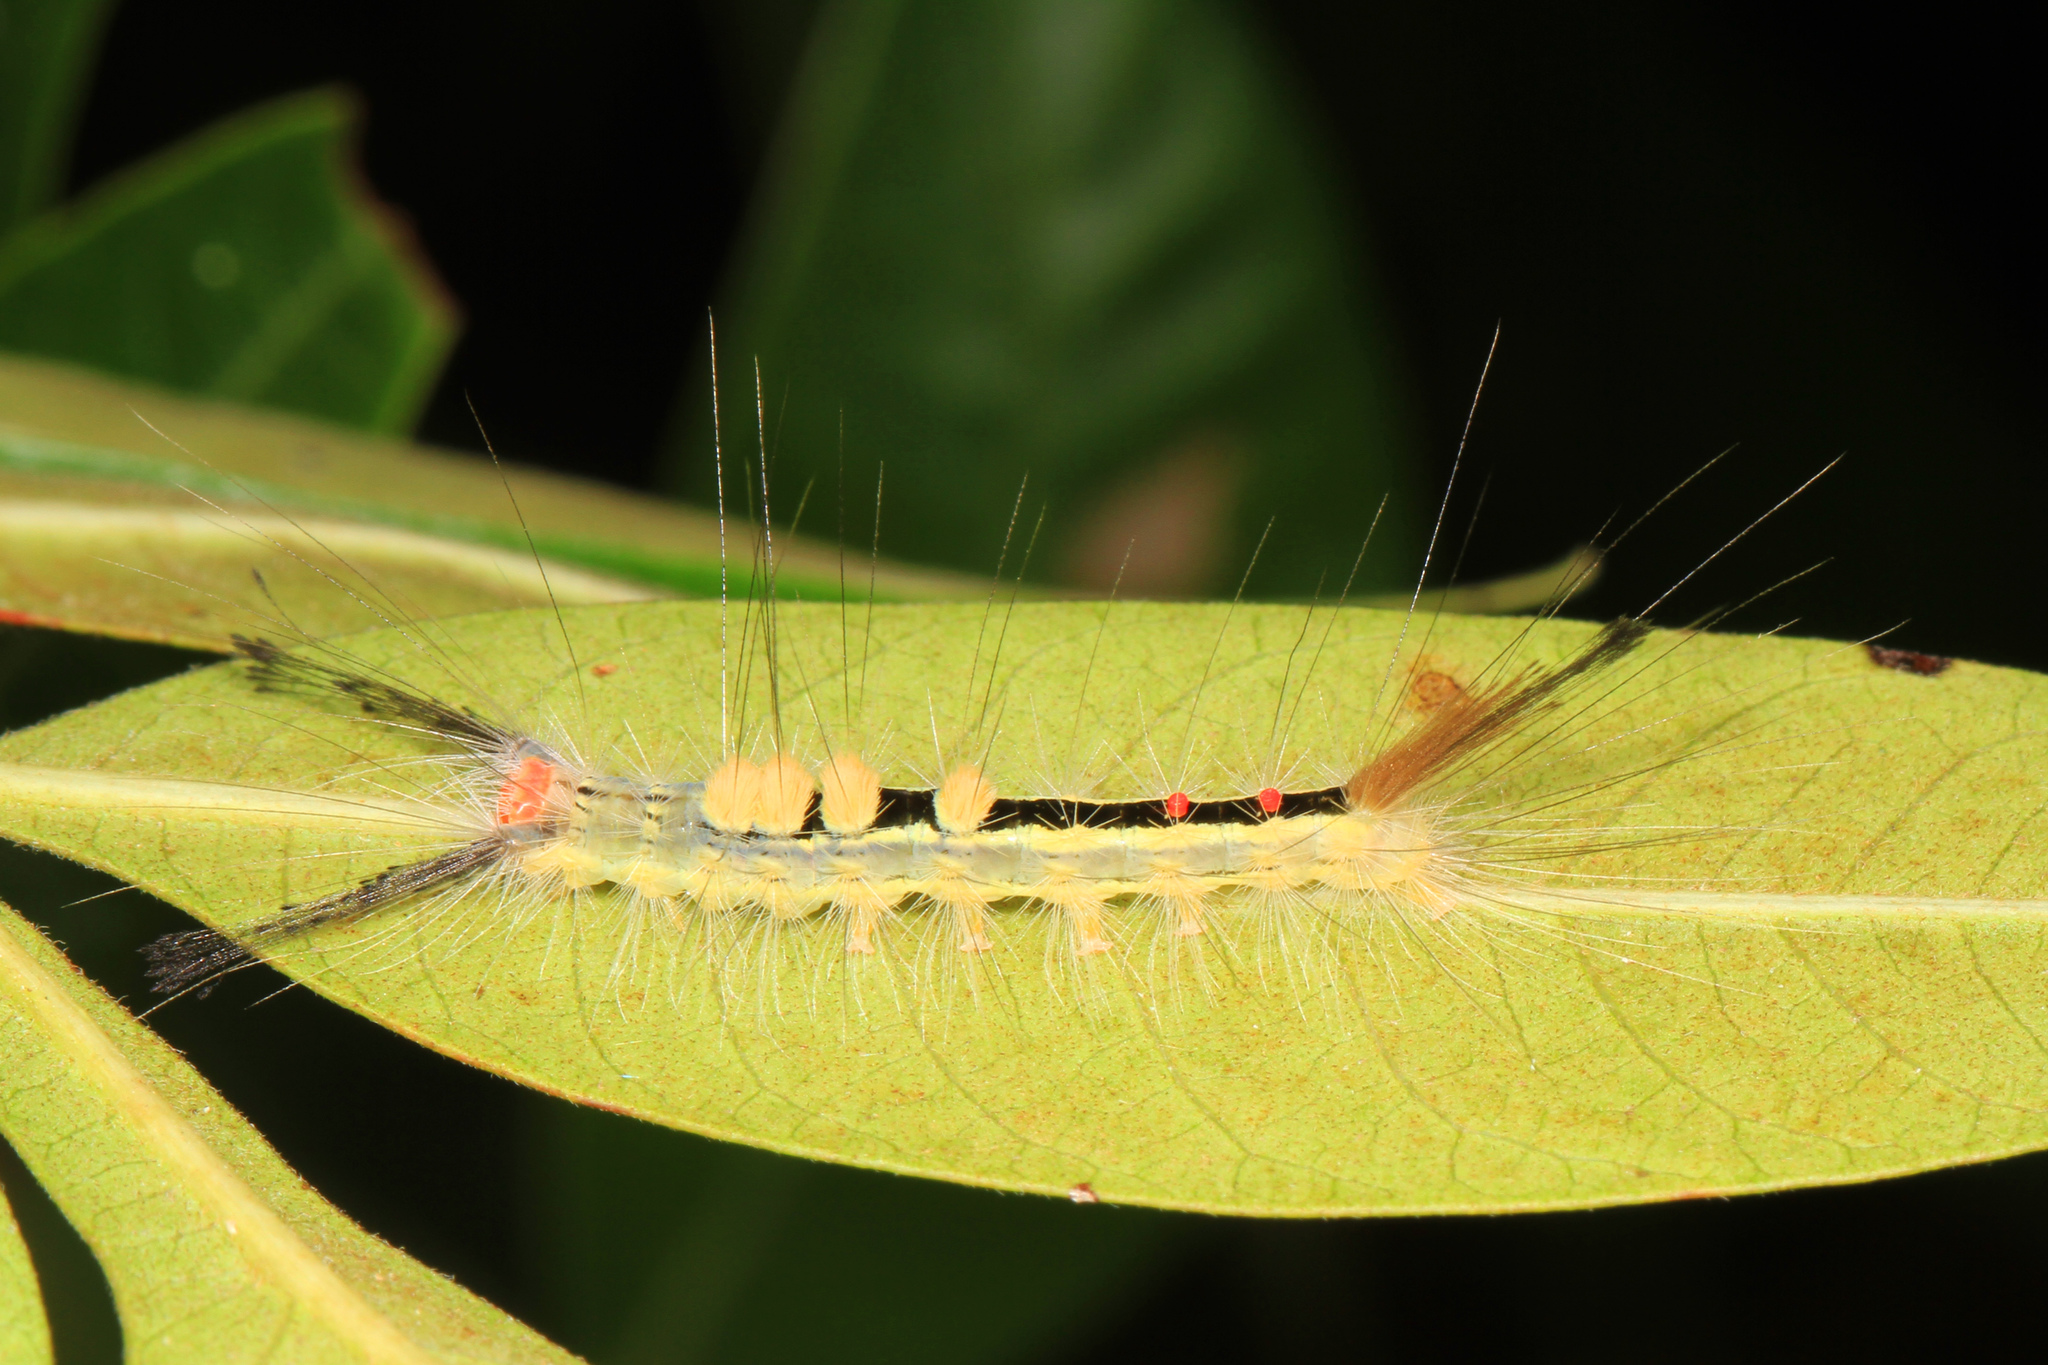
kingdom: Animalia
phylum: Arthropoda
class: Insecta
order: Lepidoptera
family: Erebidae
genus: Orgyia
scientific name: Orgyia leucostigma
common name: White-marked tussock moth
